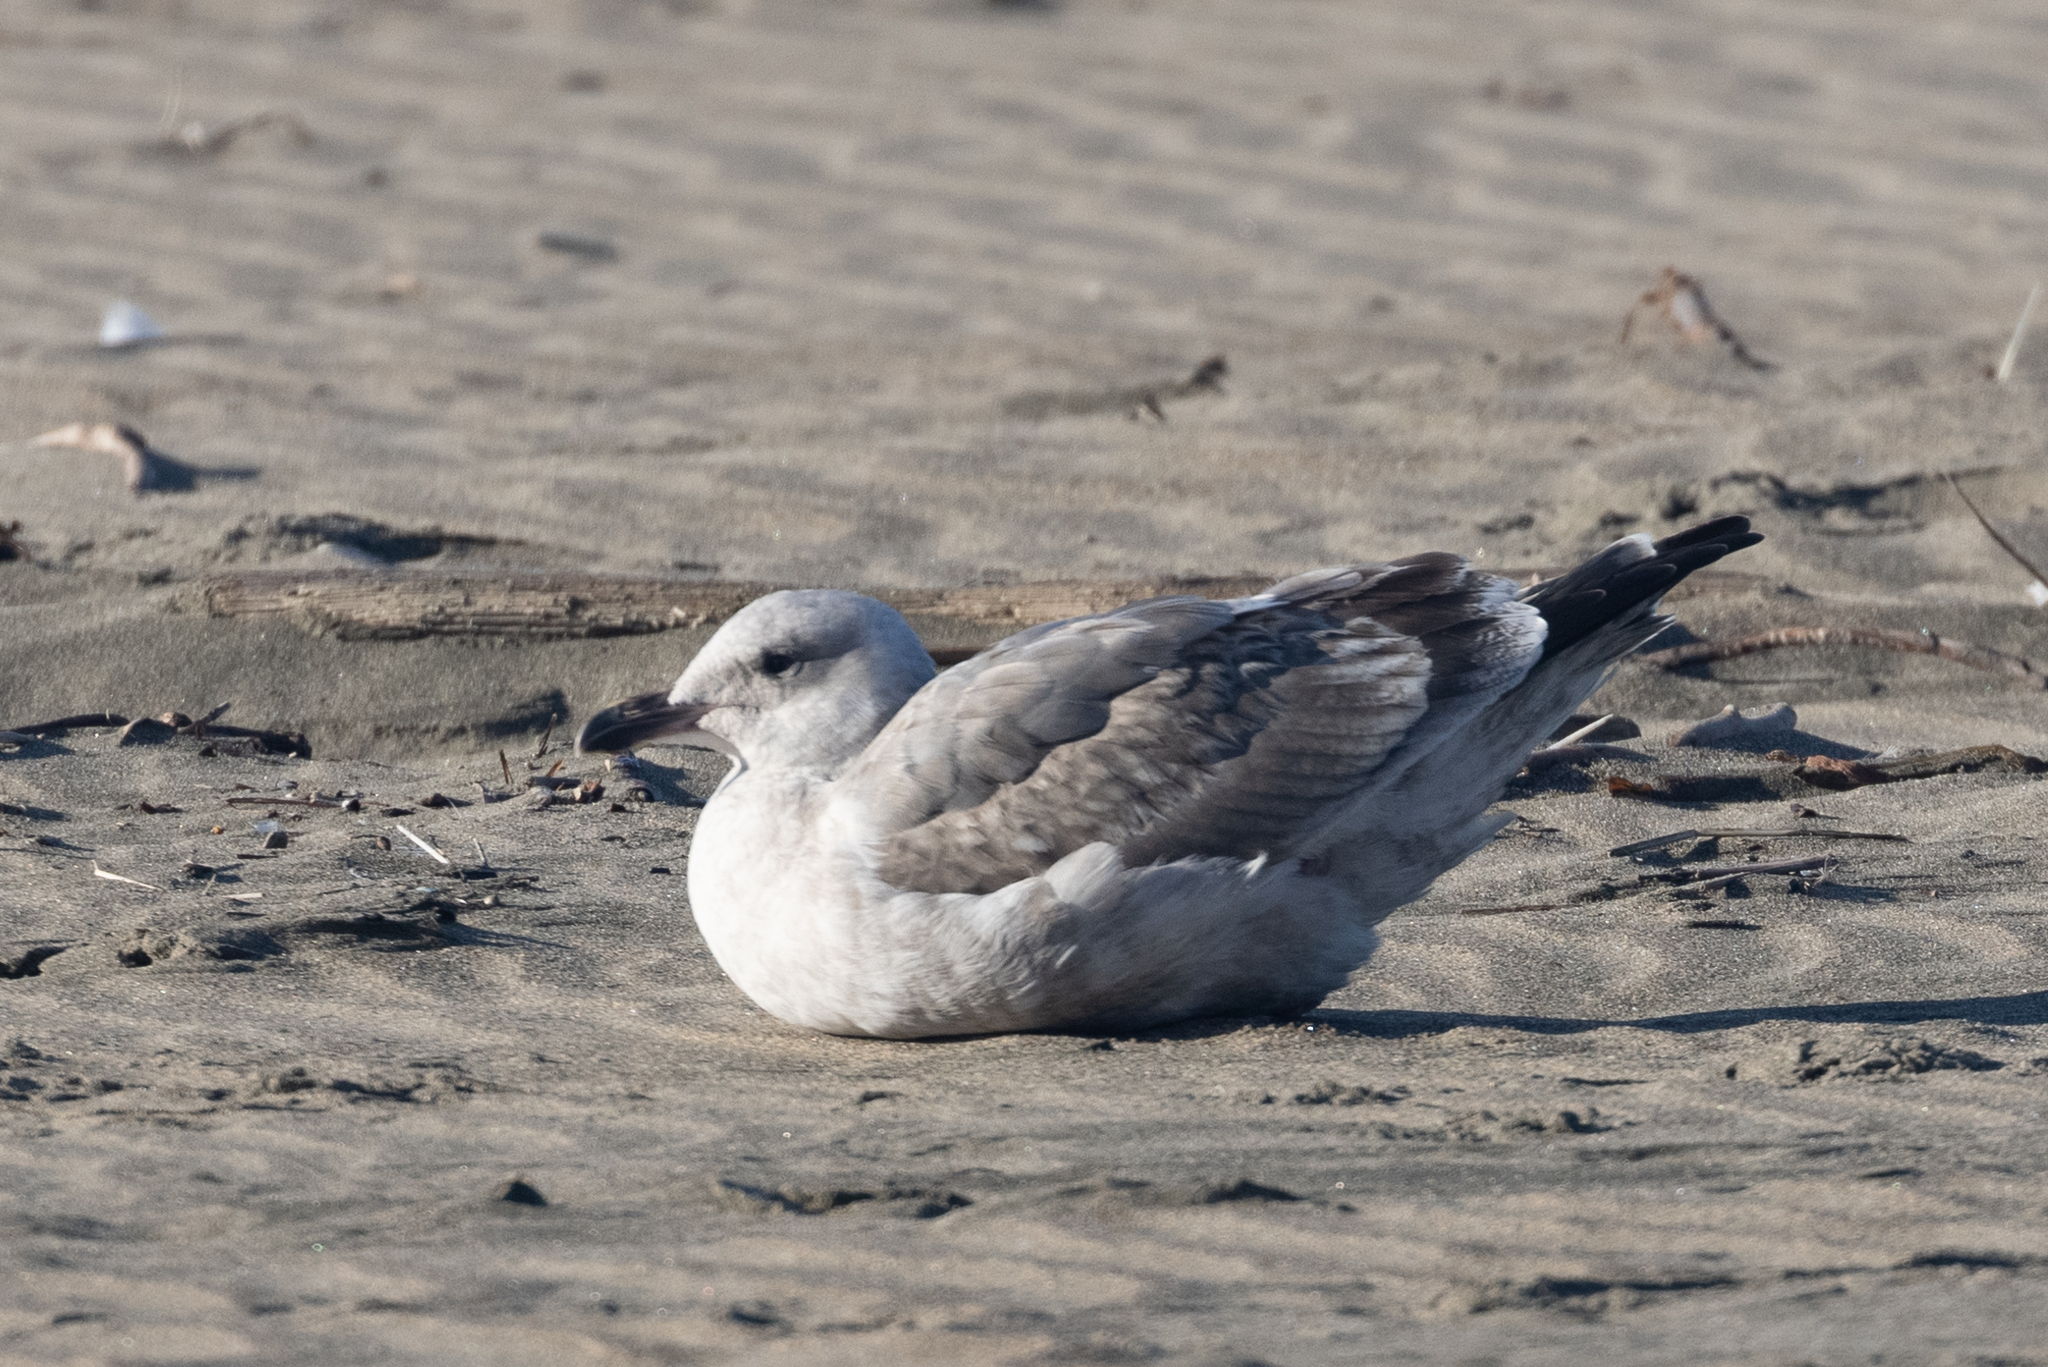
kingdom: Animalia
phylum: Chordata
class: Aves
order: Charadriiformes
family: Laridae
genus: Larus
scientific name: Larus occidentalis
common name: Western gull
